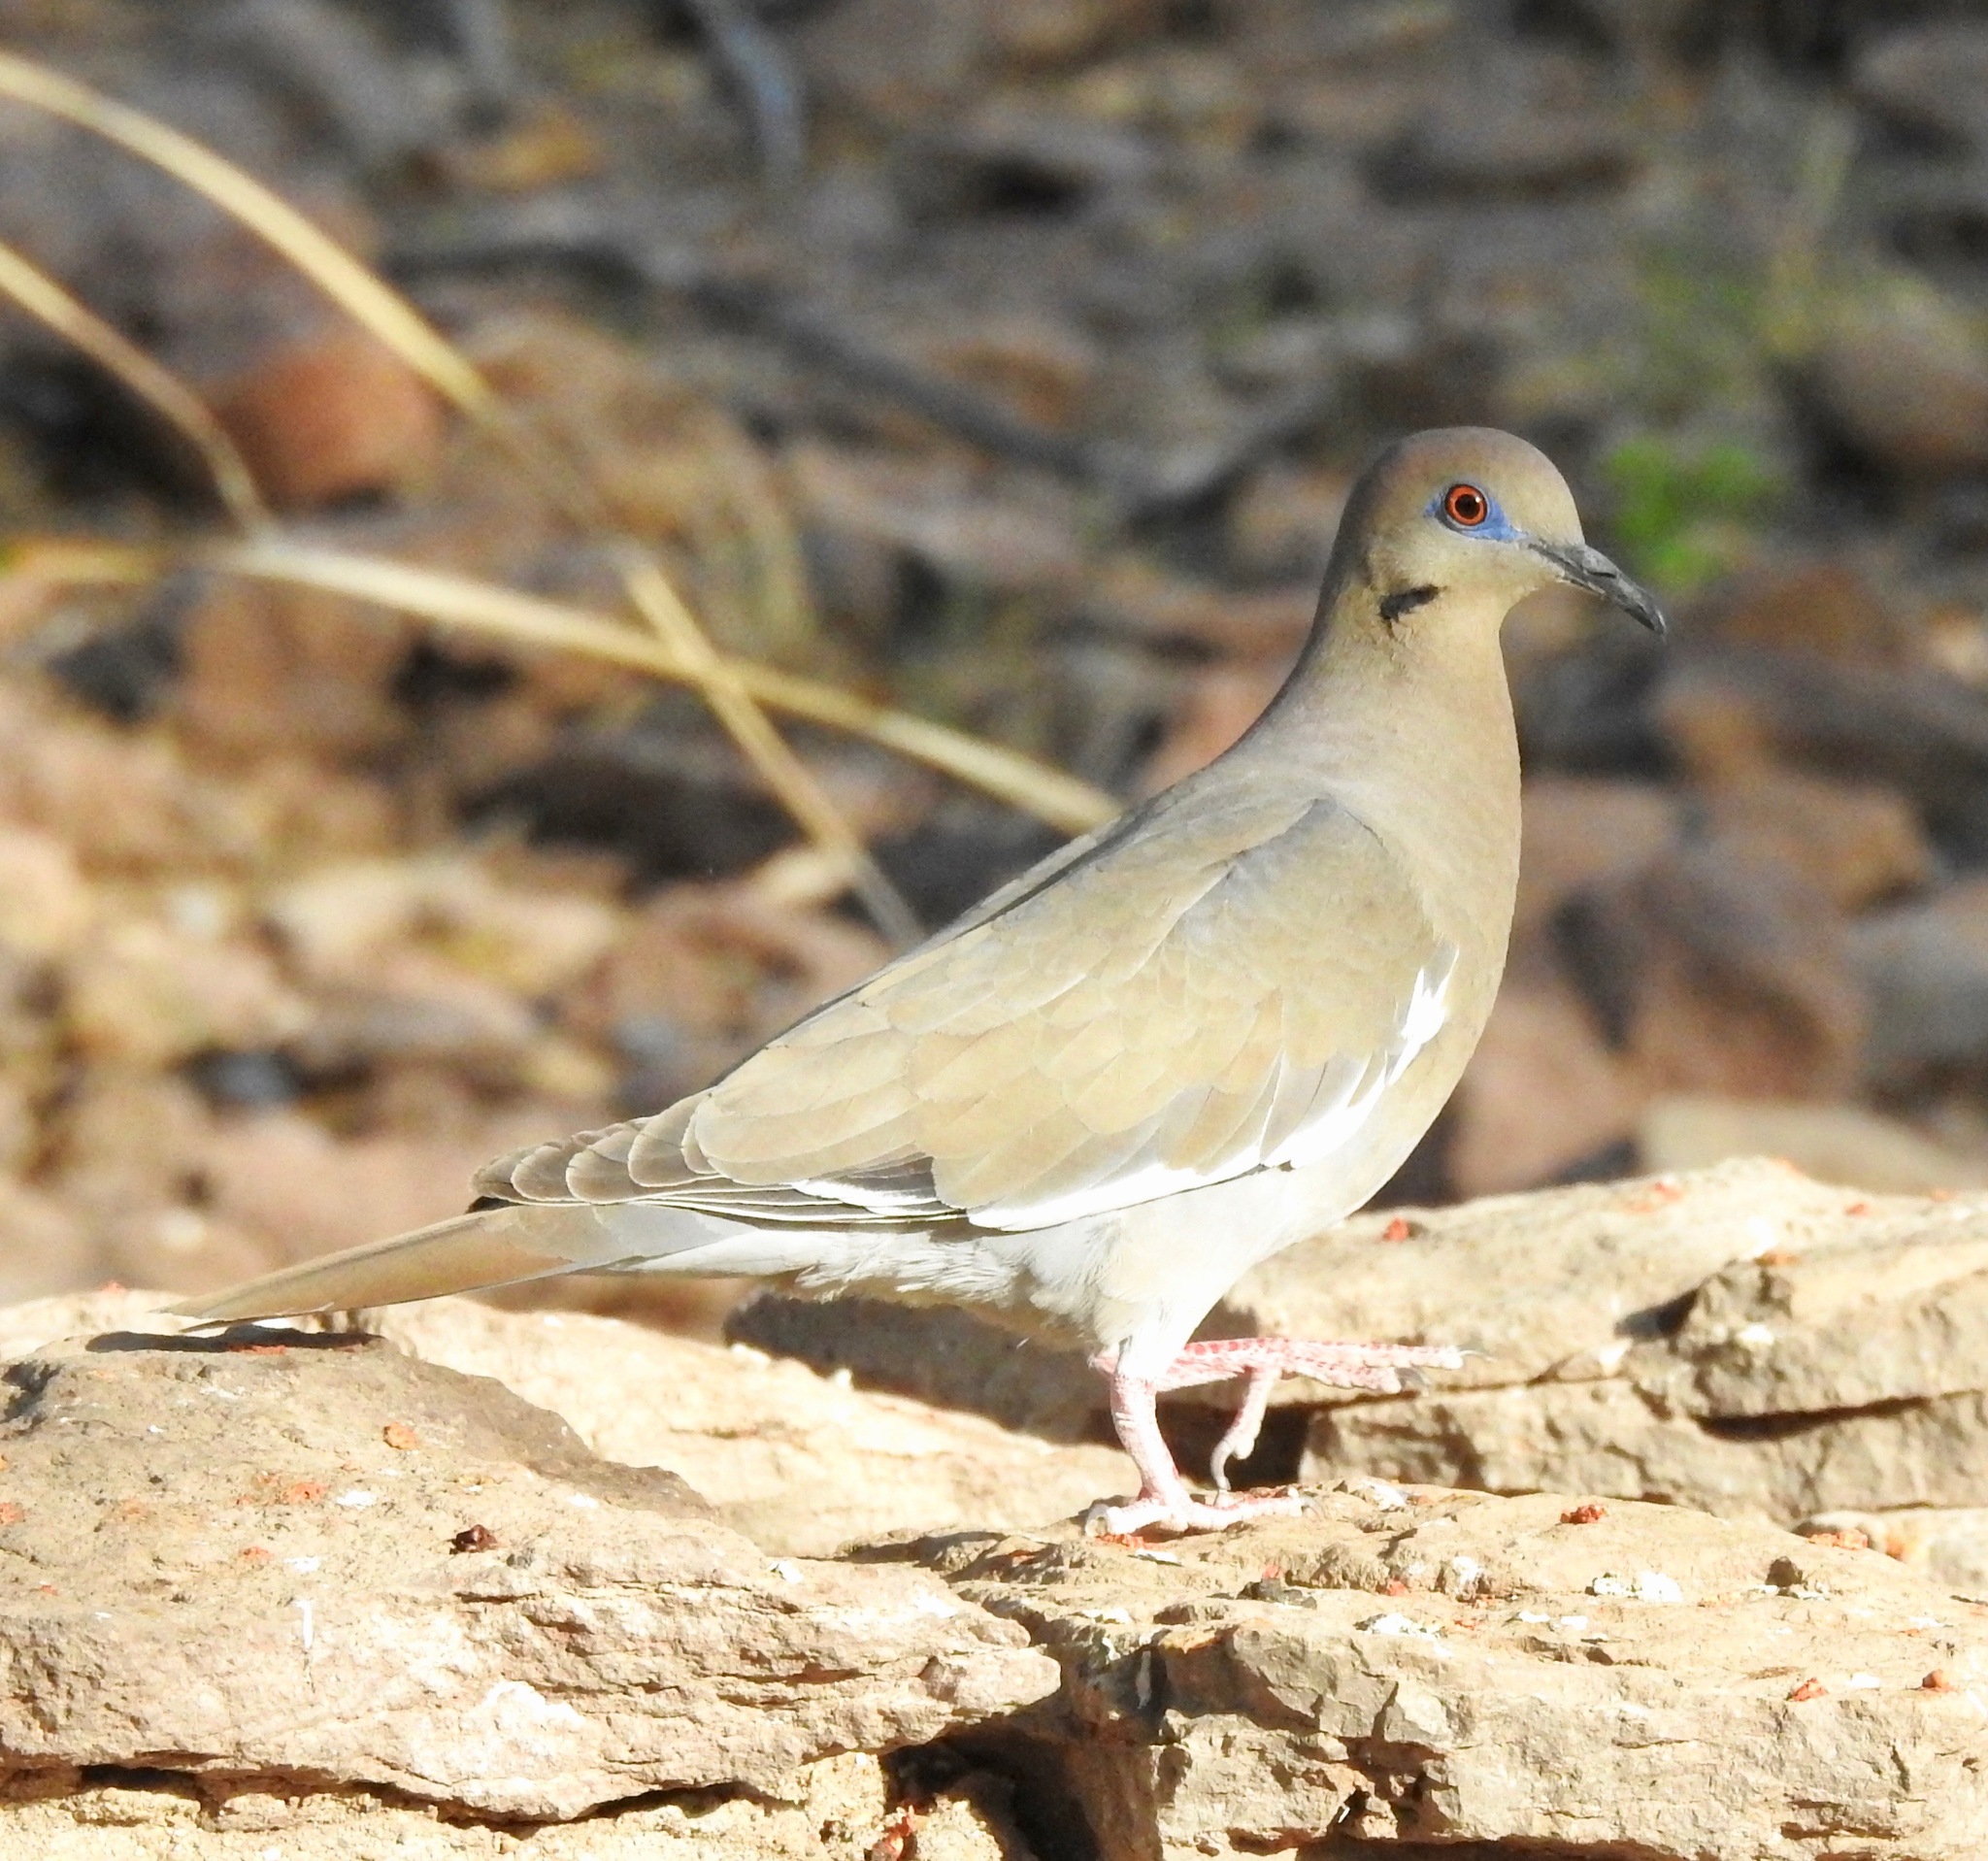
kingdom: Animalia
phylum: Chordata
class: Aves
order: Columbiformes
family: Columbidae
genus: Zenaida
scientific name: Zenaida asiatica
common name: White-winged dove
